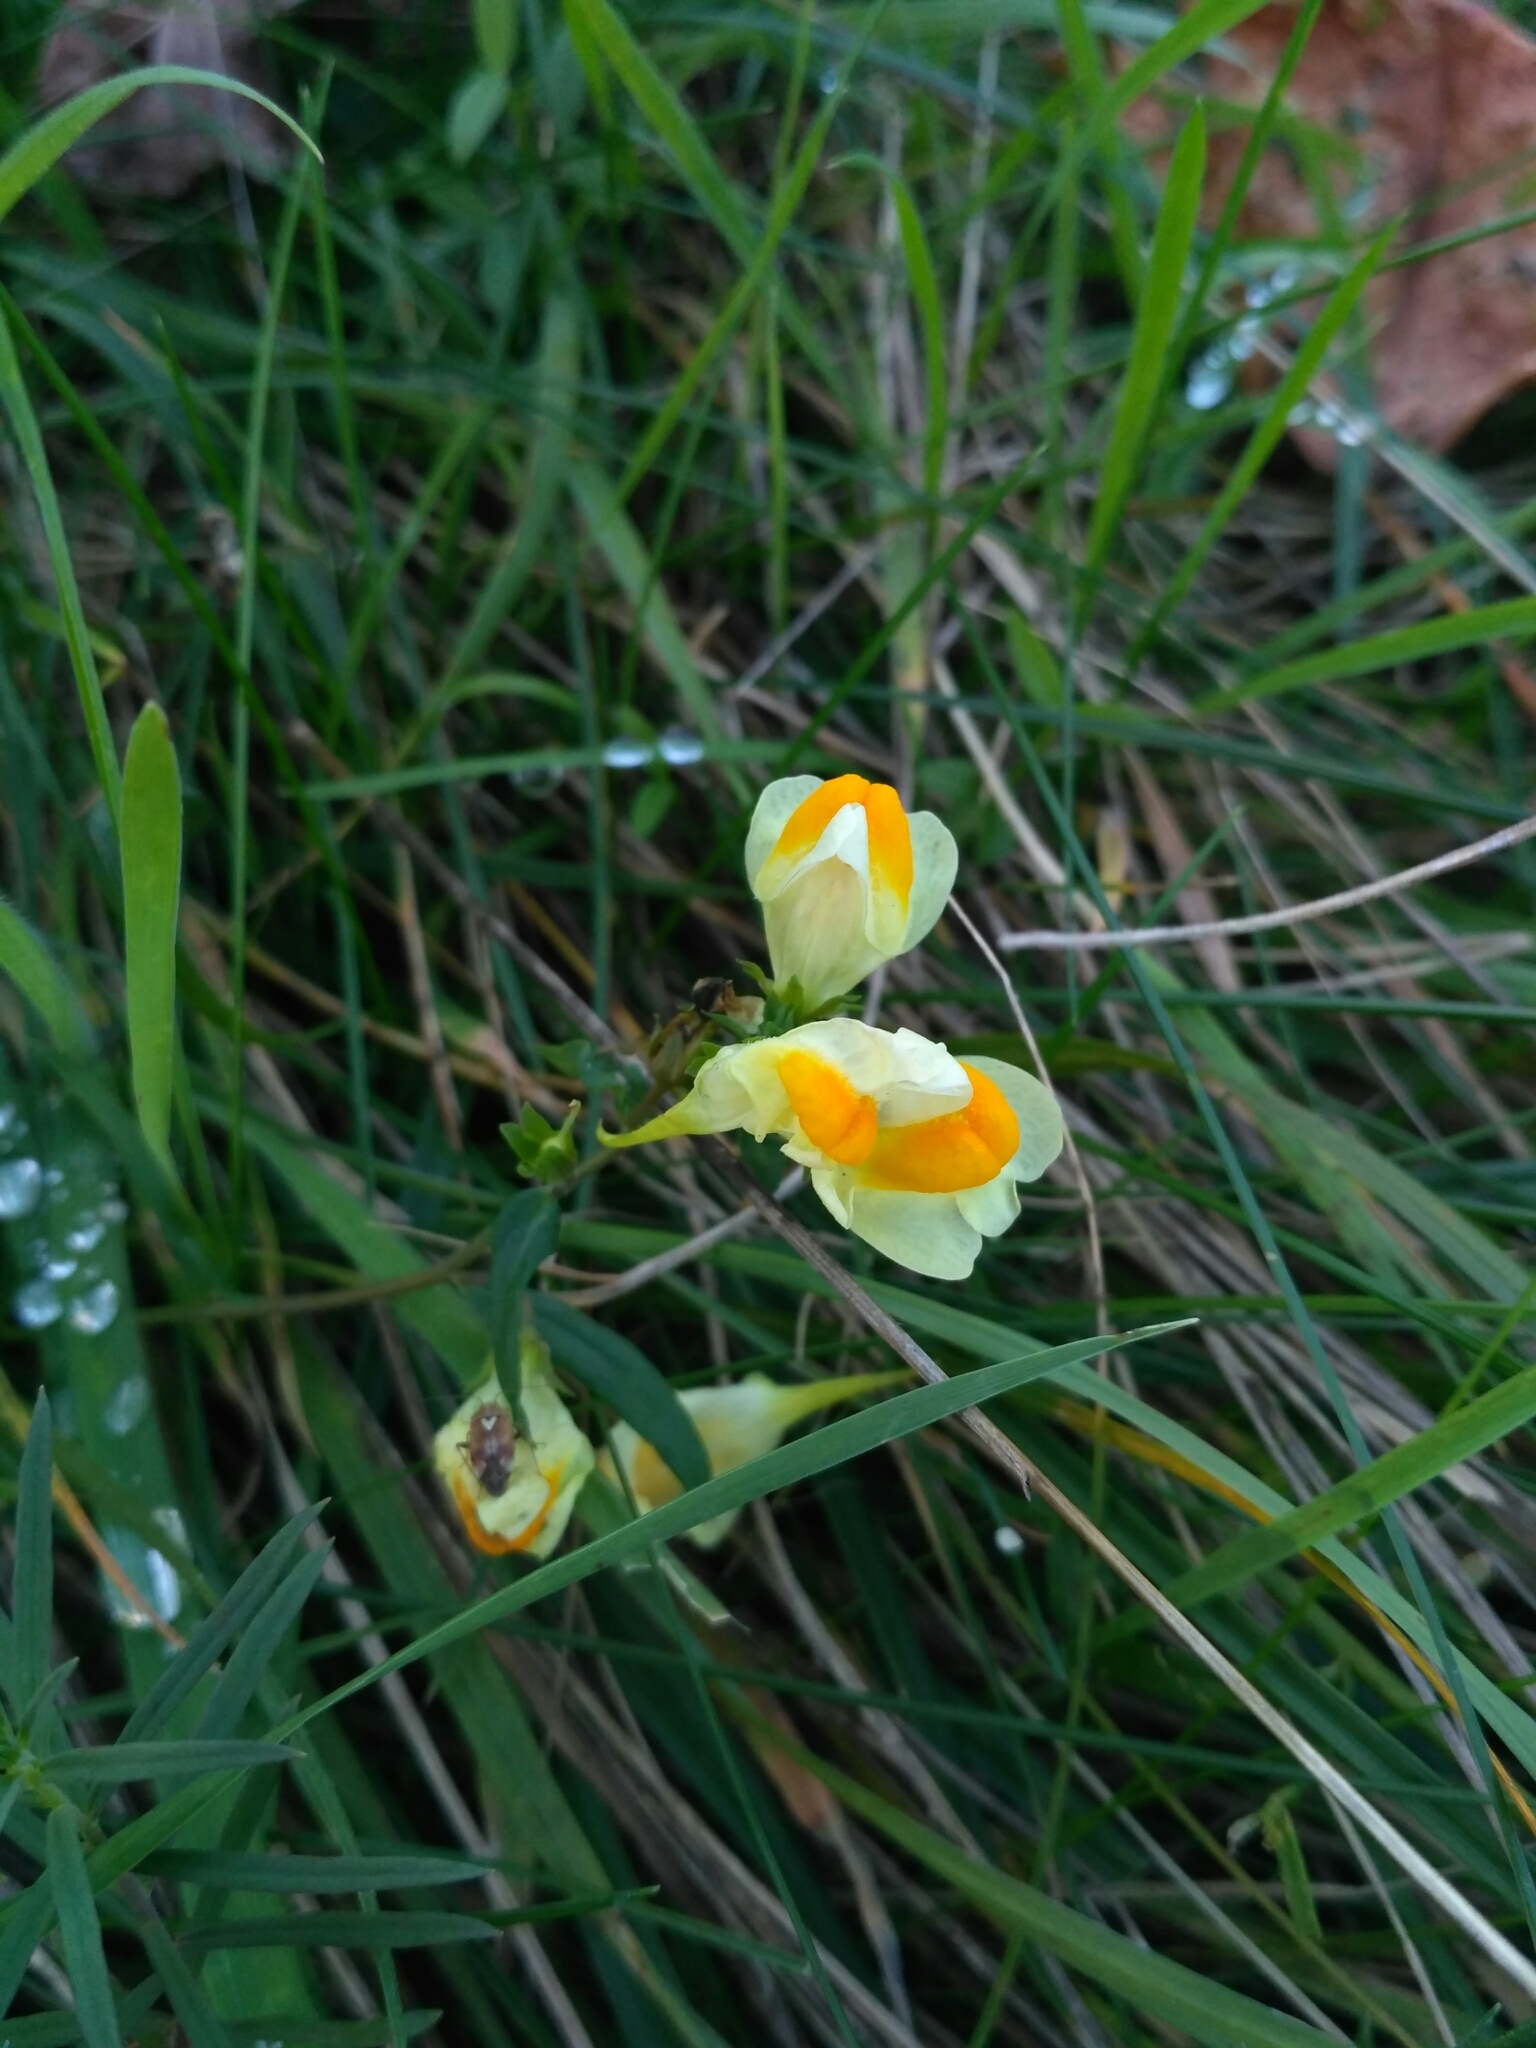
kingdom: Plantae
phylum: Tracheophyta
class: Magnoliopsida
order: Lamiales
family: Plantaginaceae
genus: Linaria
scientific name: Linaria vulgaris
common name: Butter and eggs
